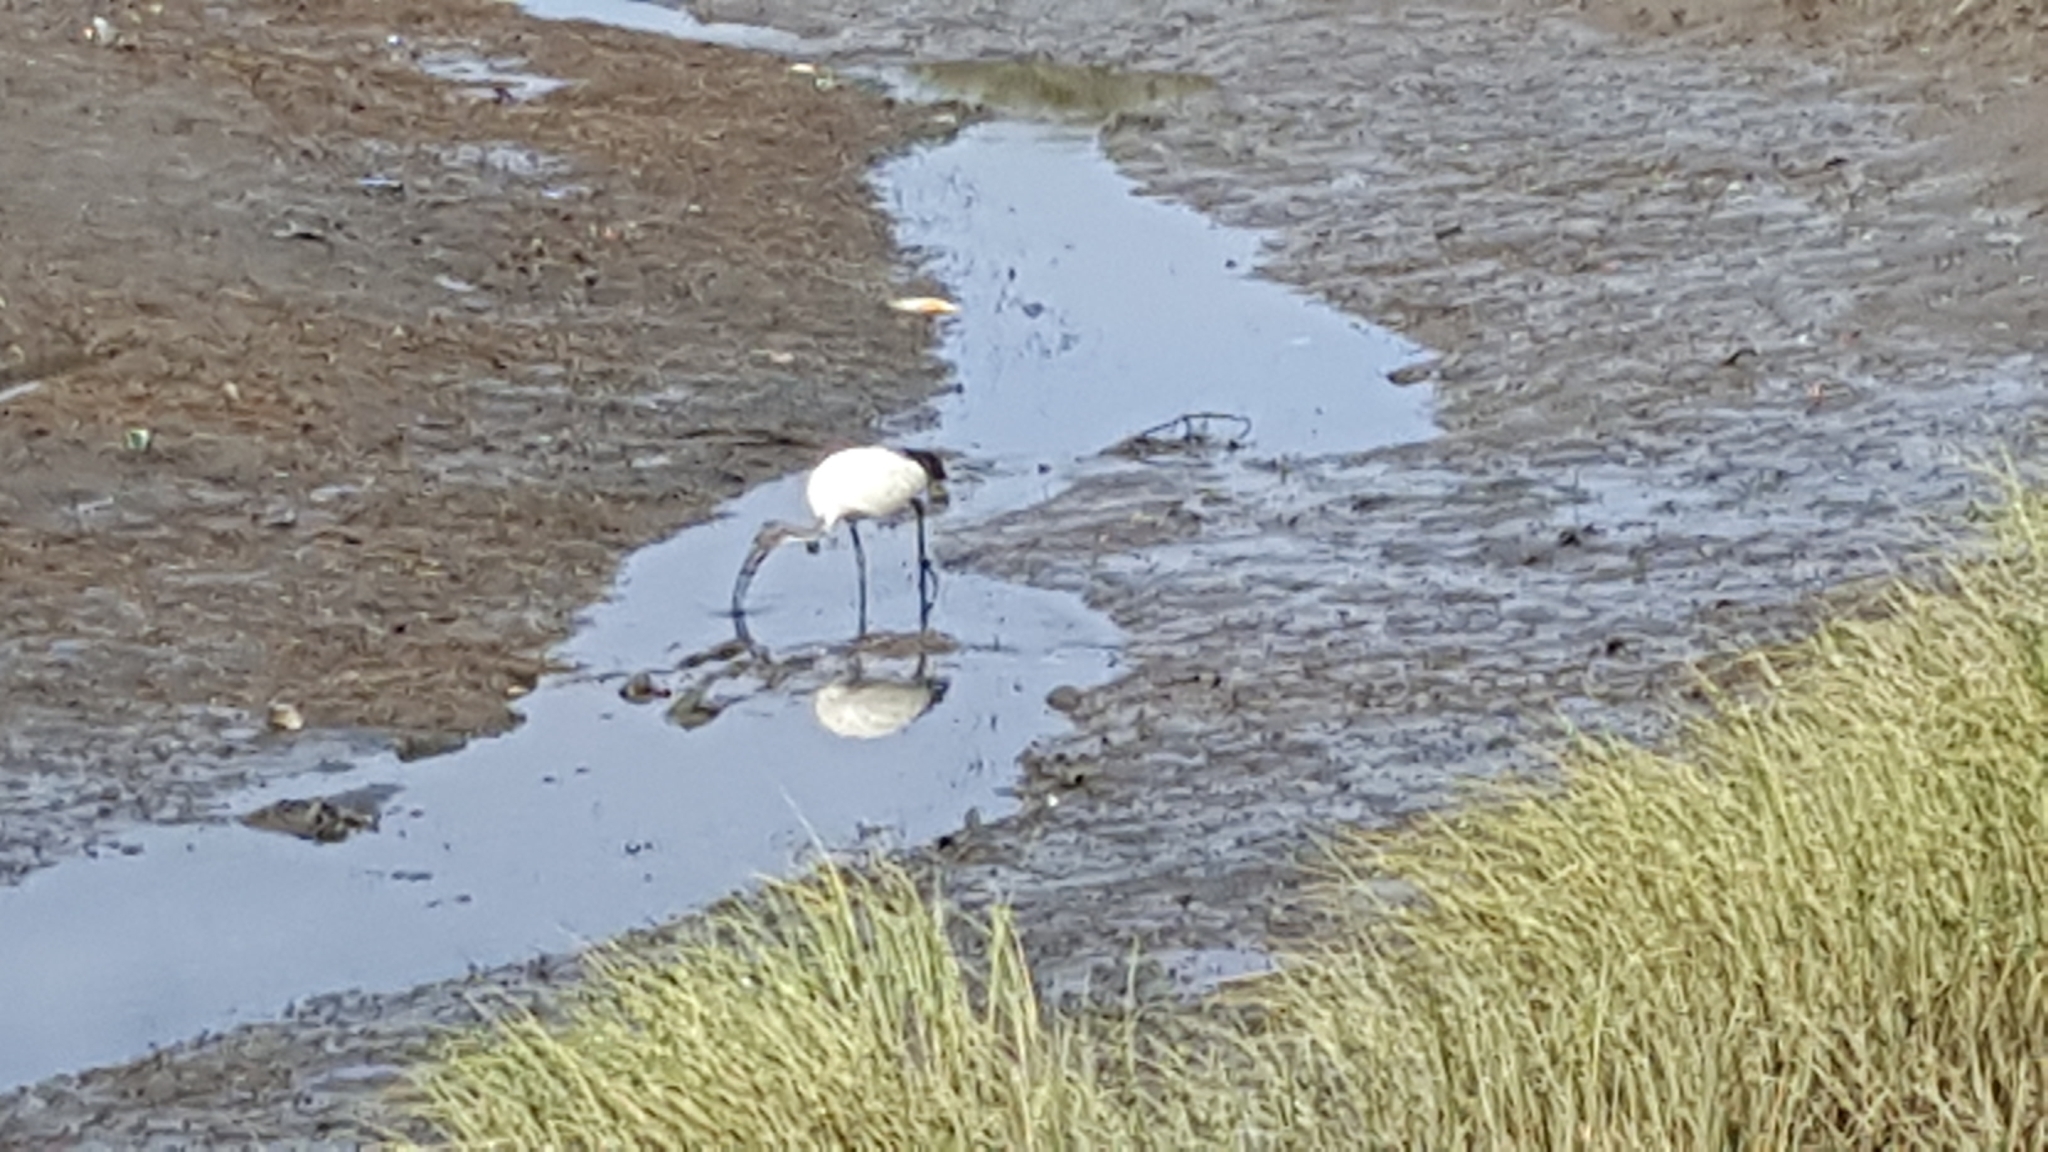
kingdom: Animalia
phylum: Chordata
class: Aves
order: Pelecaniformes
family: Threskiornithidae
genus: Threskiornis
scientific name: Threskiornis aethiopicus
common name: Sacred ibis
